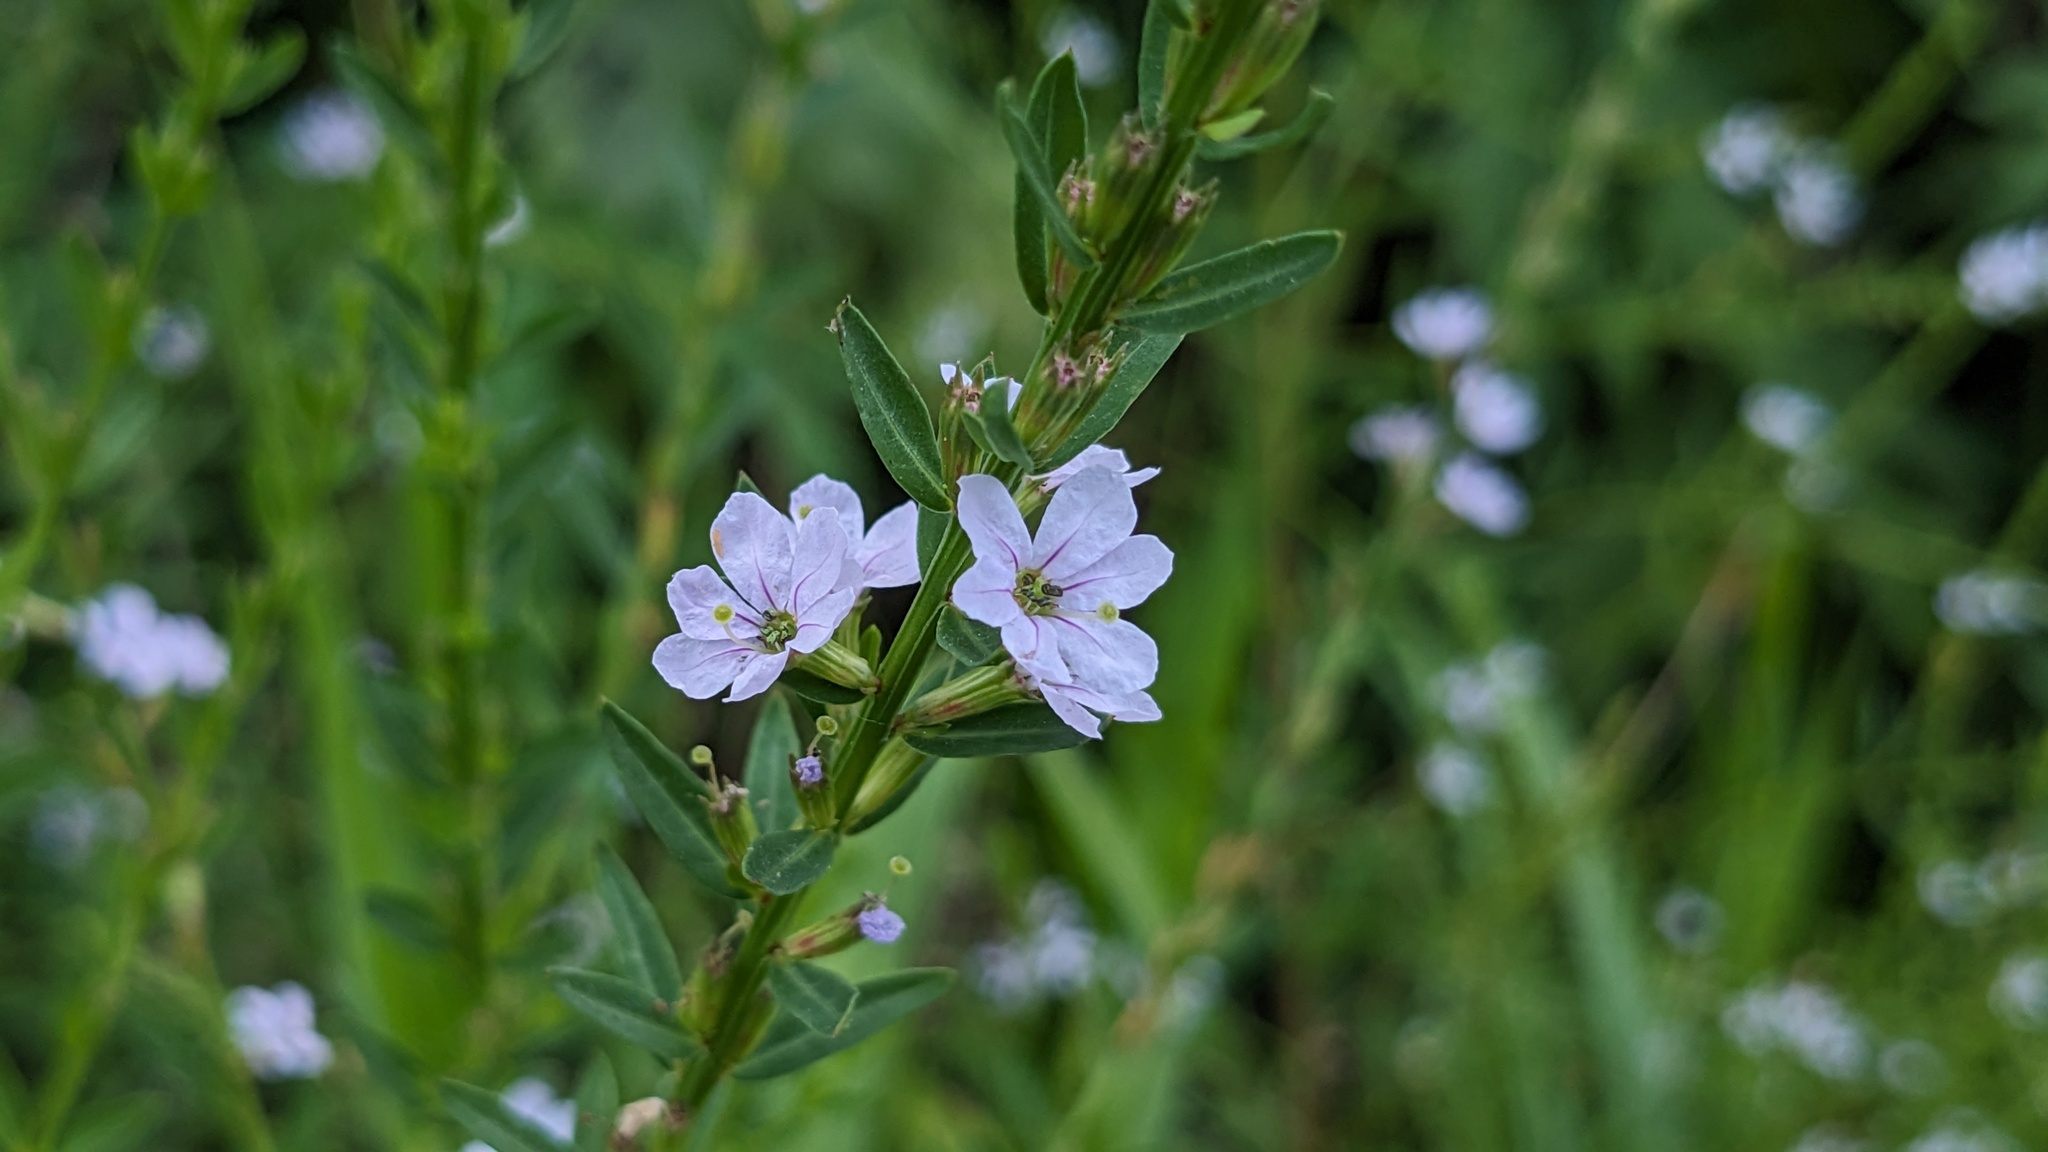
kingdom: Plantae
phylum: Tracheophyta
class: Magnoliopsida
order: Myrtales
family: Lythraceae
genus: Lythrum
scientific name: Lythrum alatum
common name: Winged loosestrife
